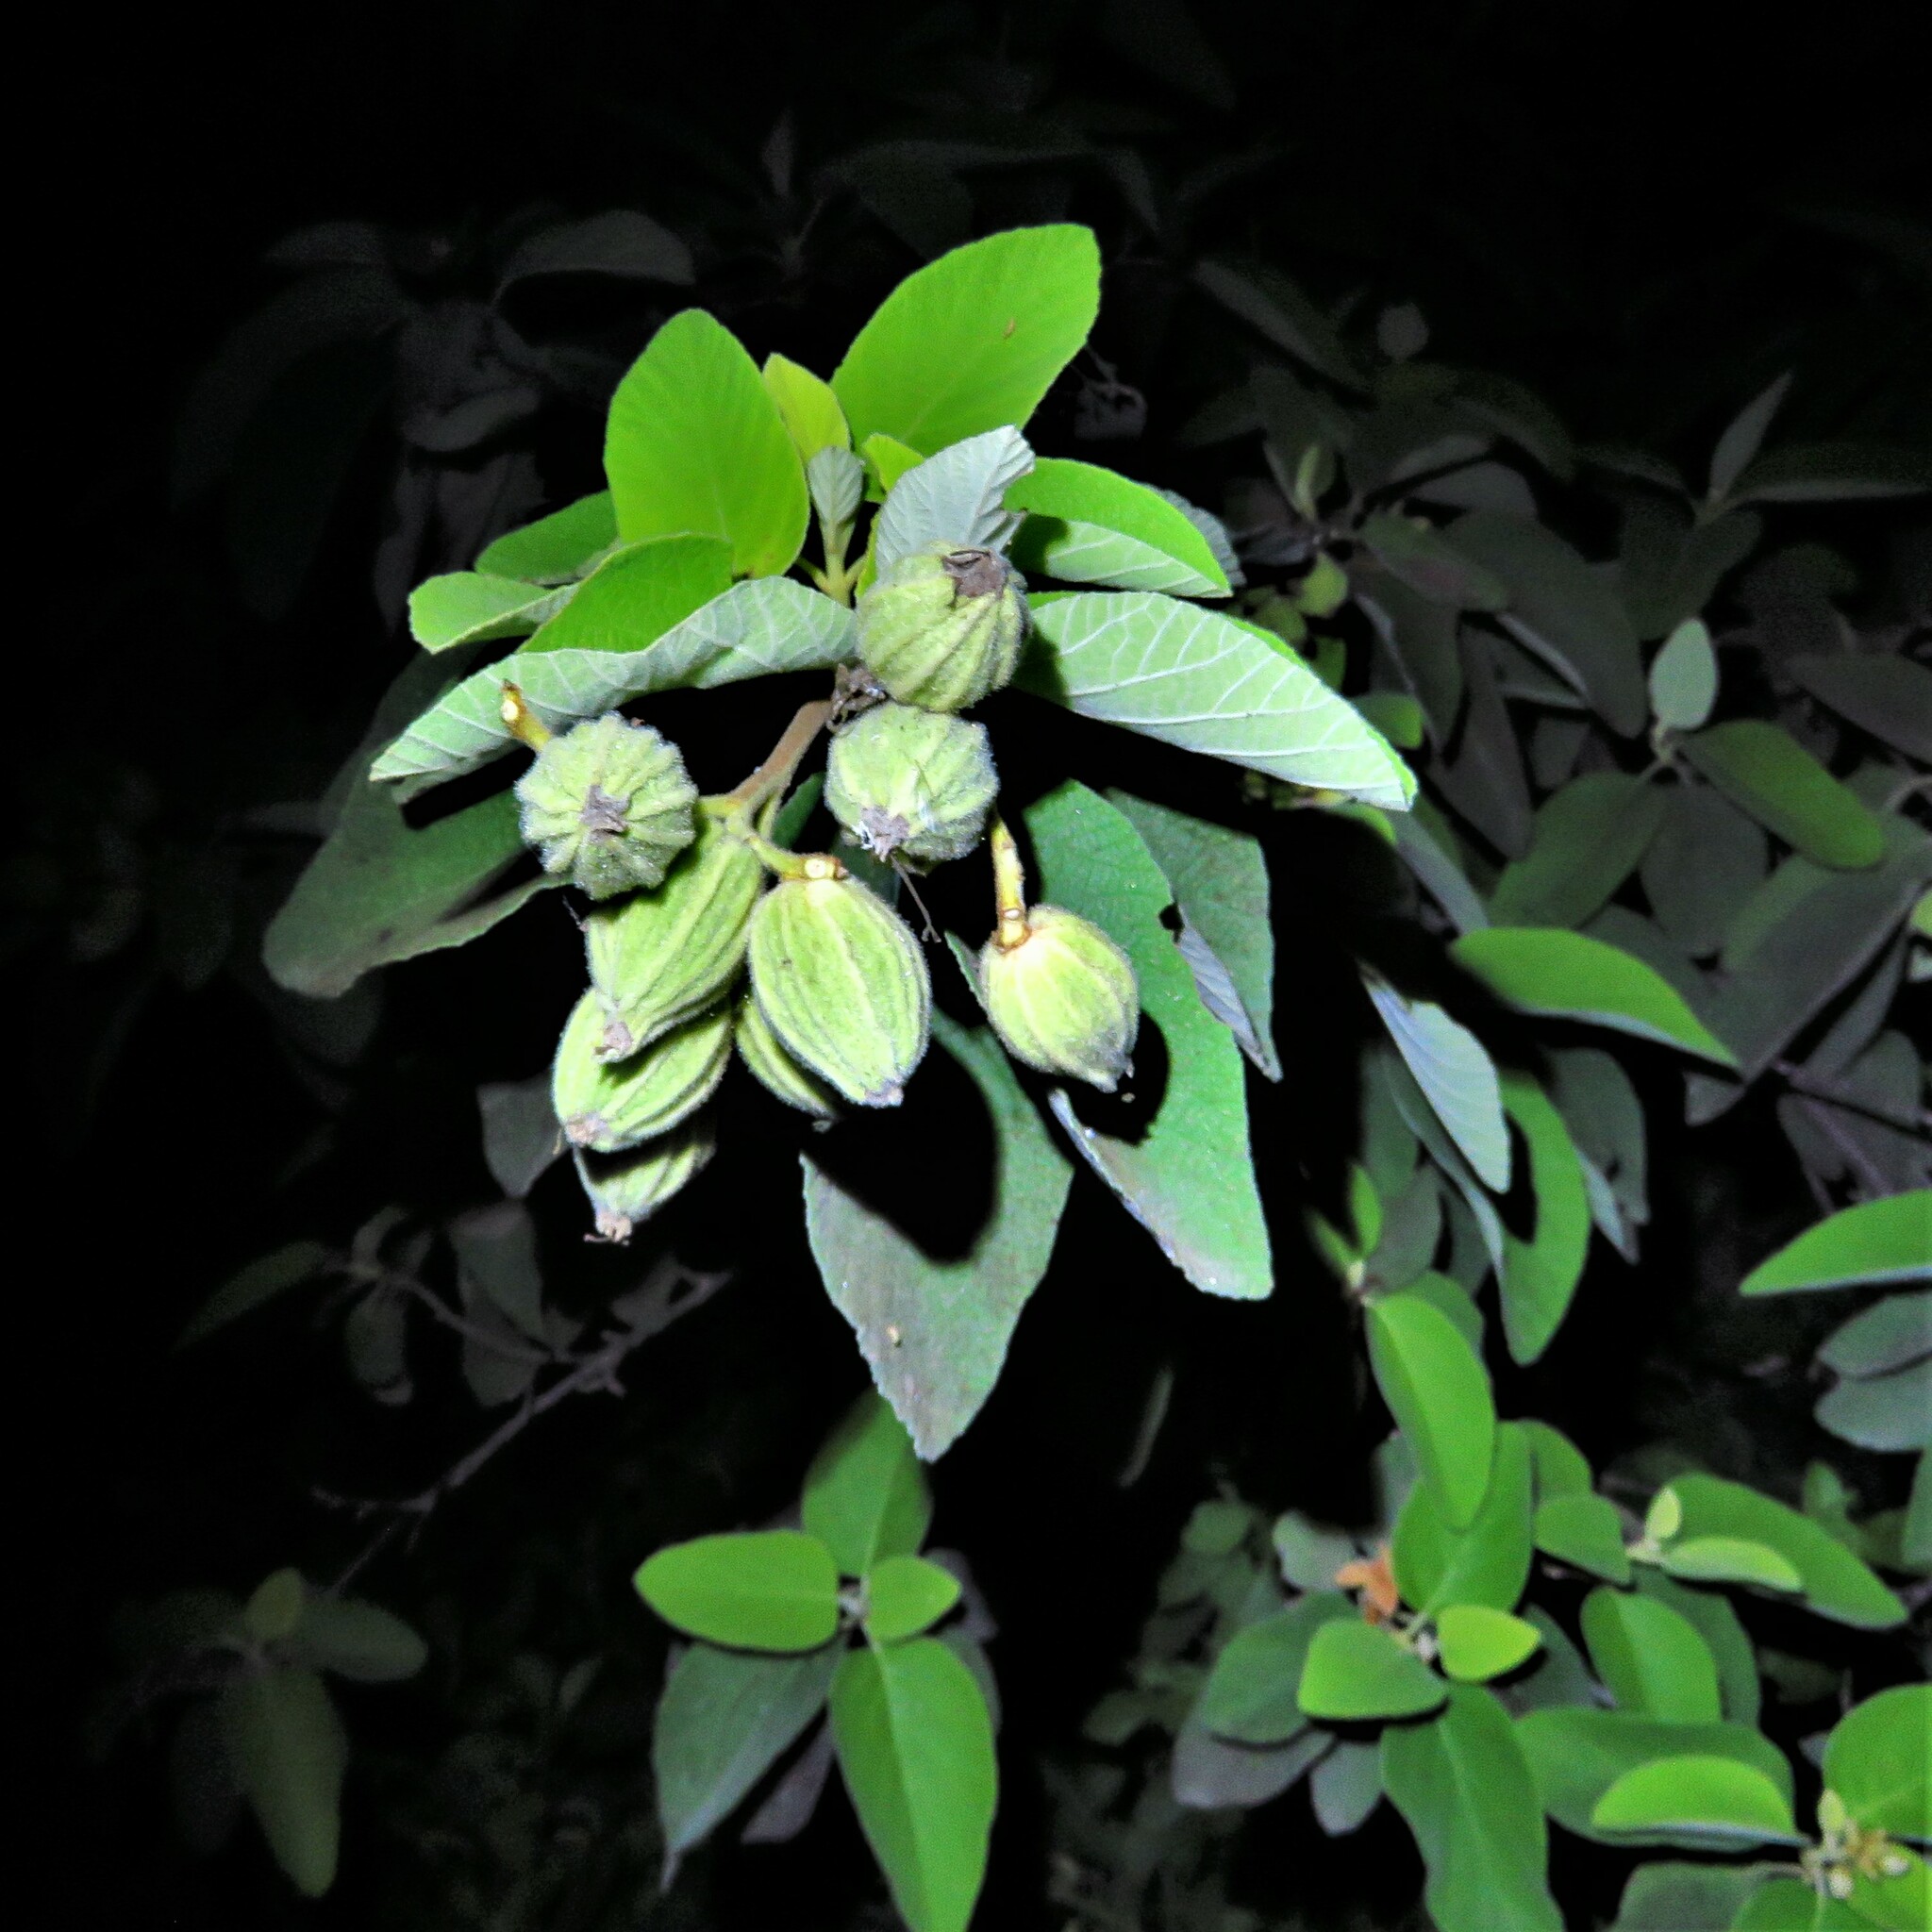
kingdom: Plantae
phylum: Tracheophyta
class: Magnoliopsida
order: Boraginales
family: Cordiaceae
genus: Cordia
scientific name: Cordia boissieri
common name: Mexican-olive
